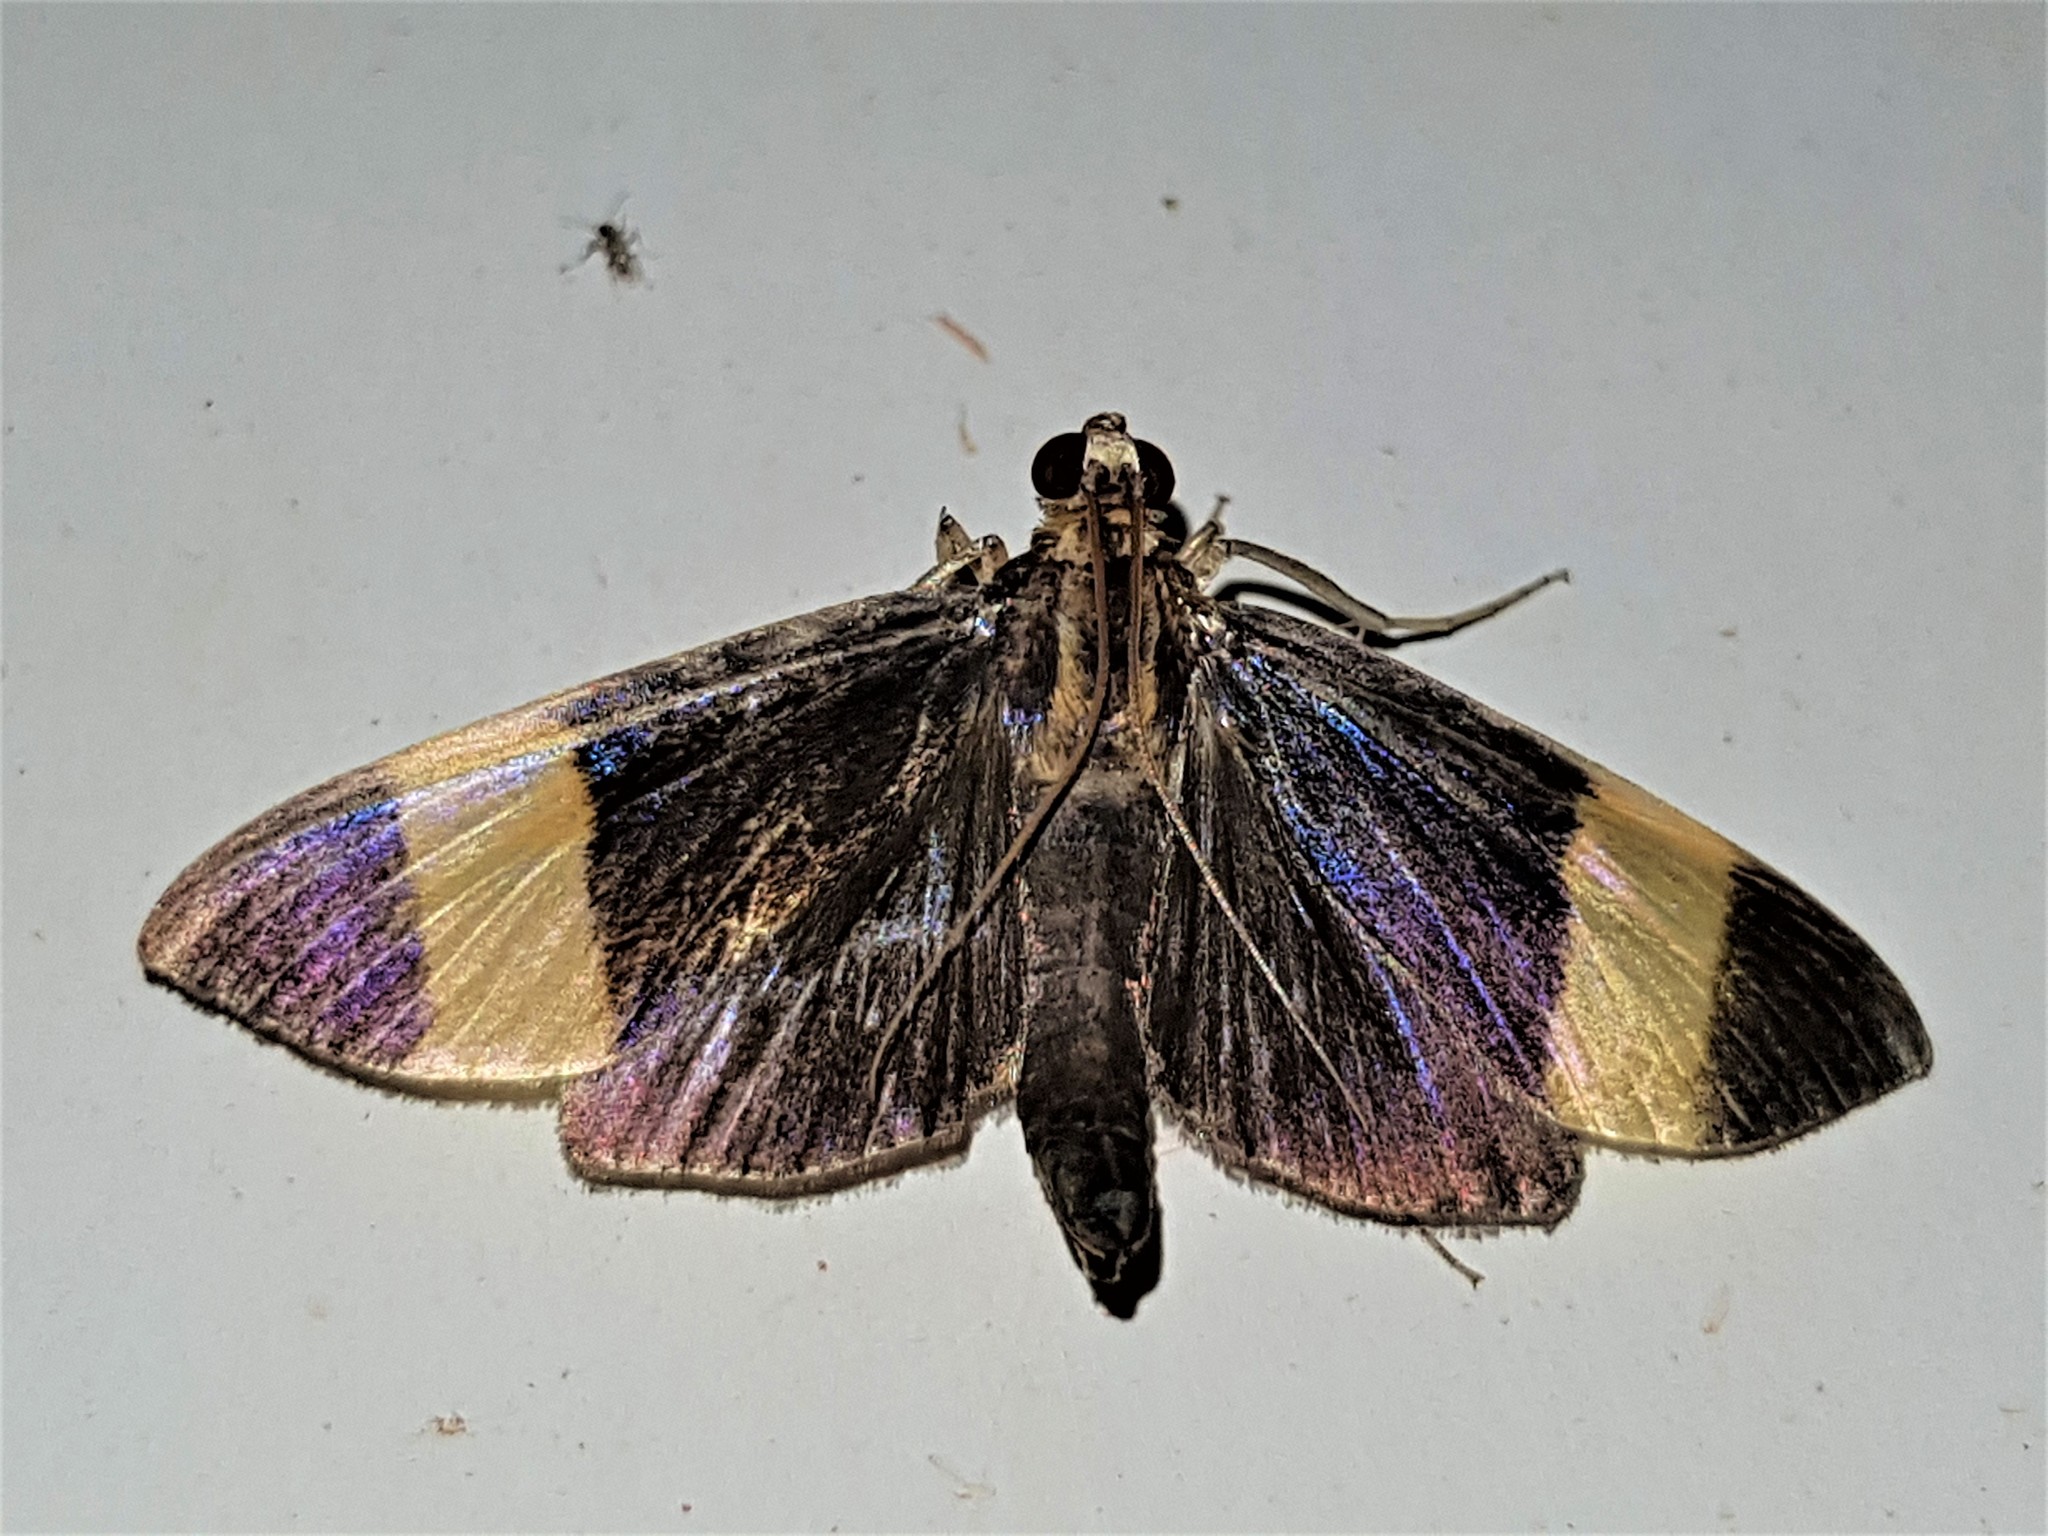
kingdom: Animalia
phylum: Arthropoda
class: Insecta
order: Lepidoptera
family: Crambidae
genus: Pilocrocis
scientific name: Pilocrocis xanthozonalis
